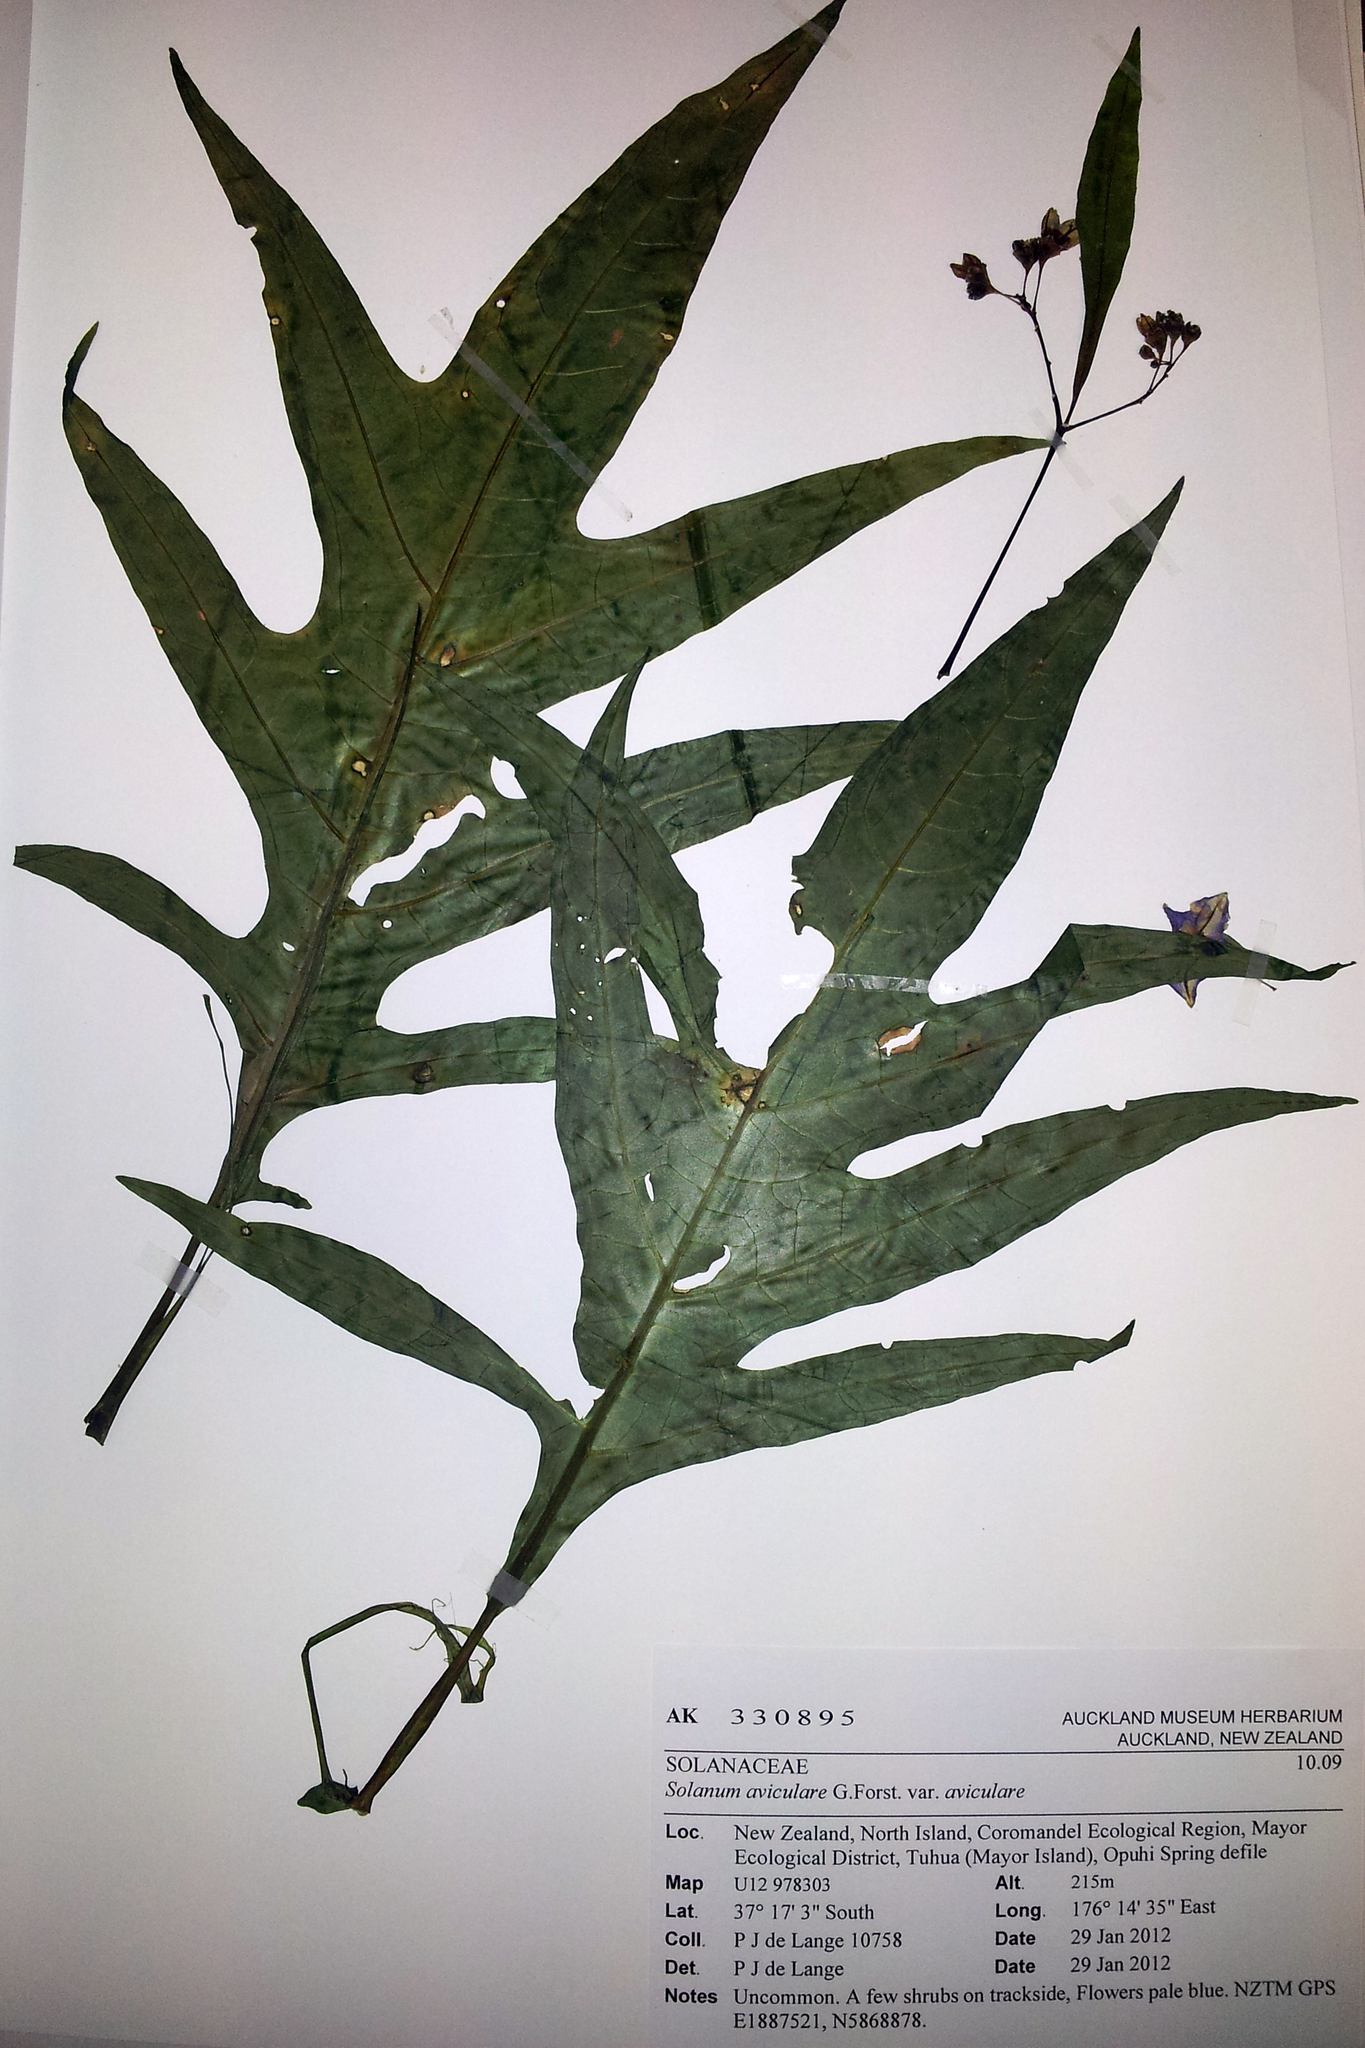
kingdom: Plantae
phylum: Tracheophyta
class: Magnoliopsida
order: Solanales
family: Solanaceae
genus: Solanum
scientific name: Solanum aviculare
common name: New zealand nightshade
